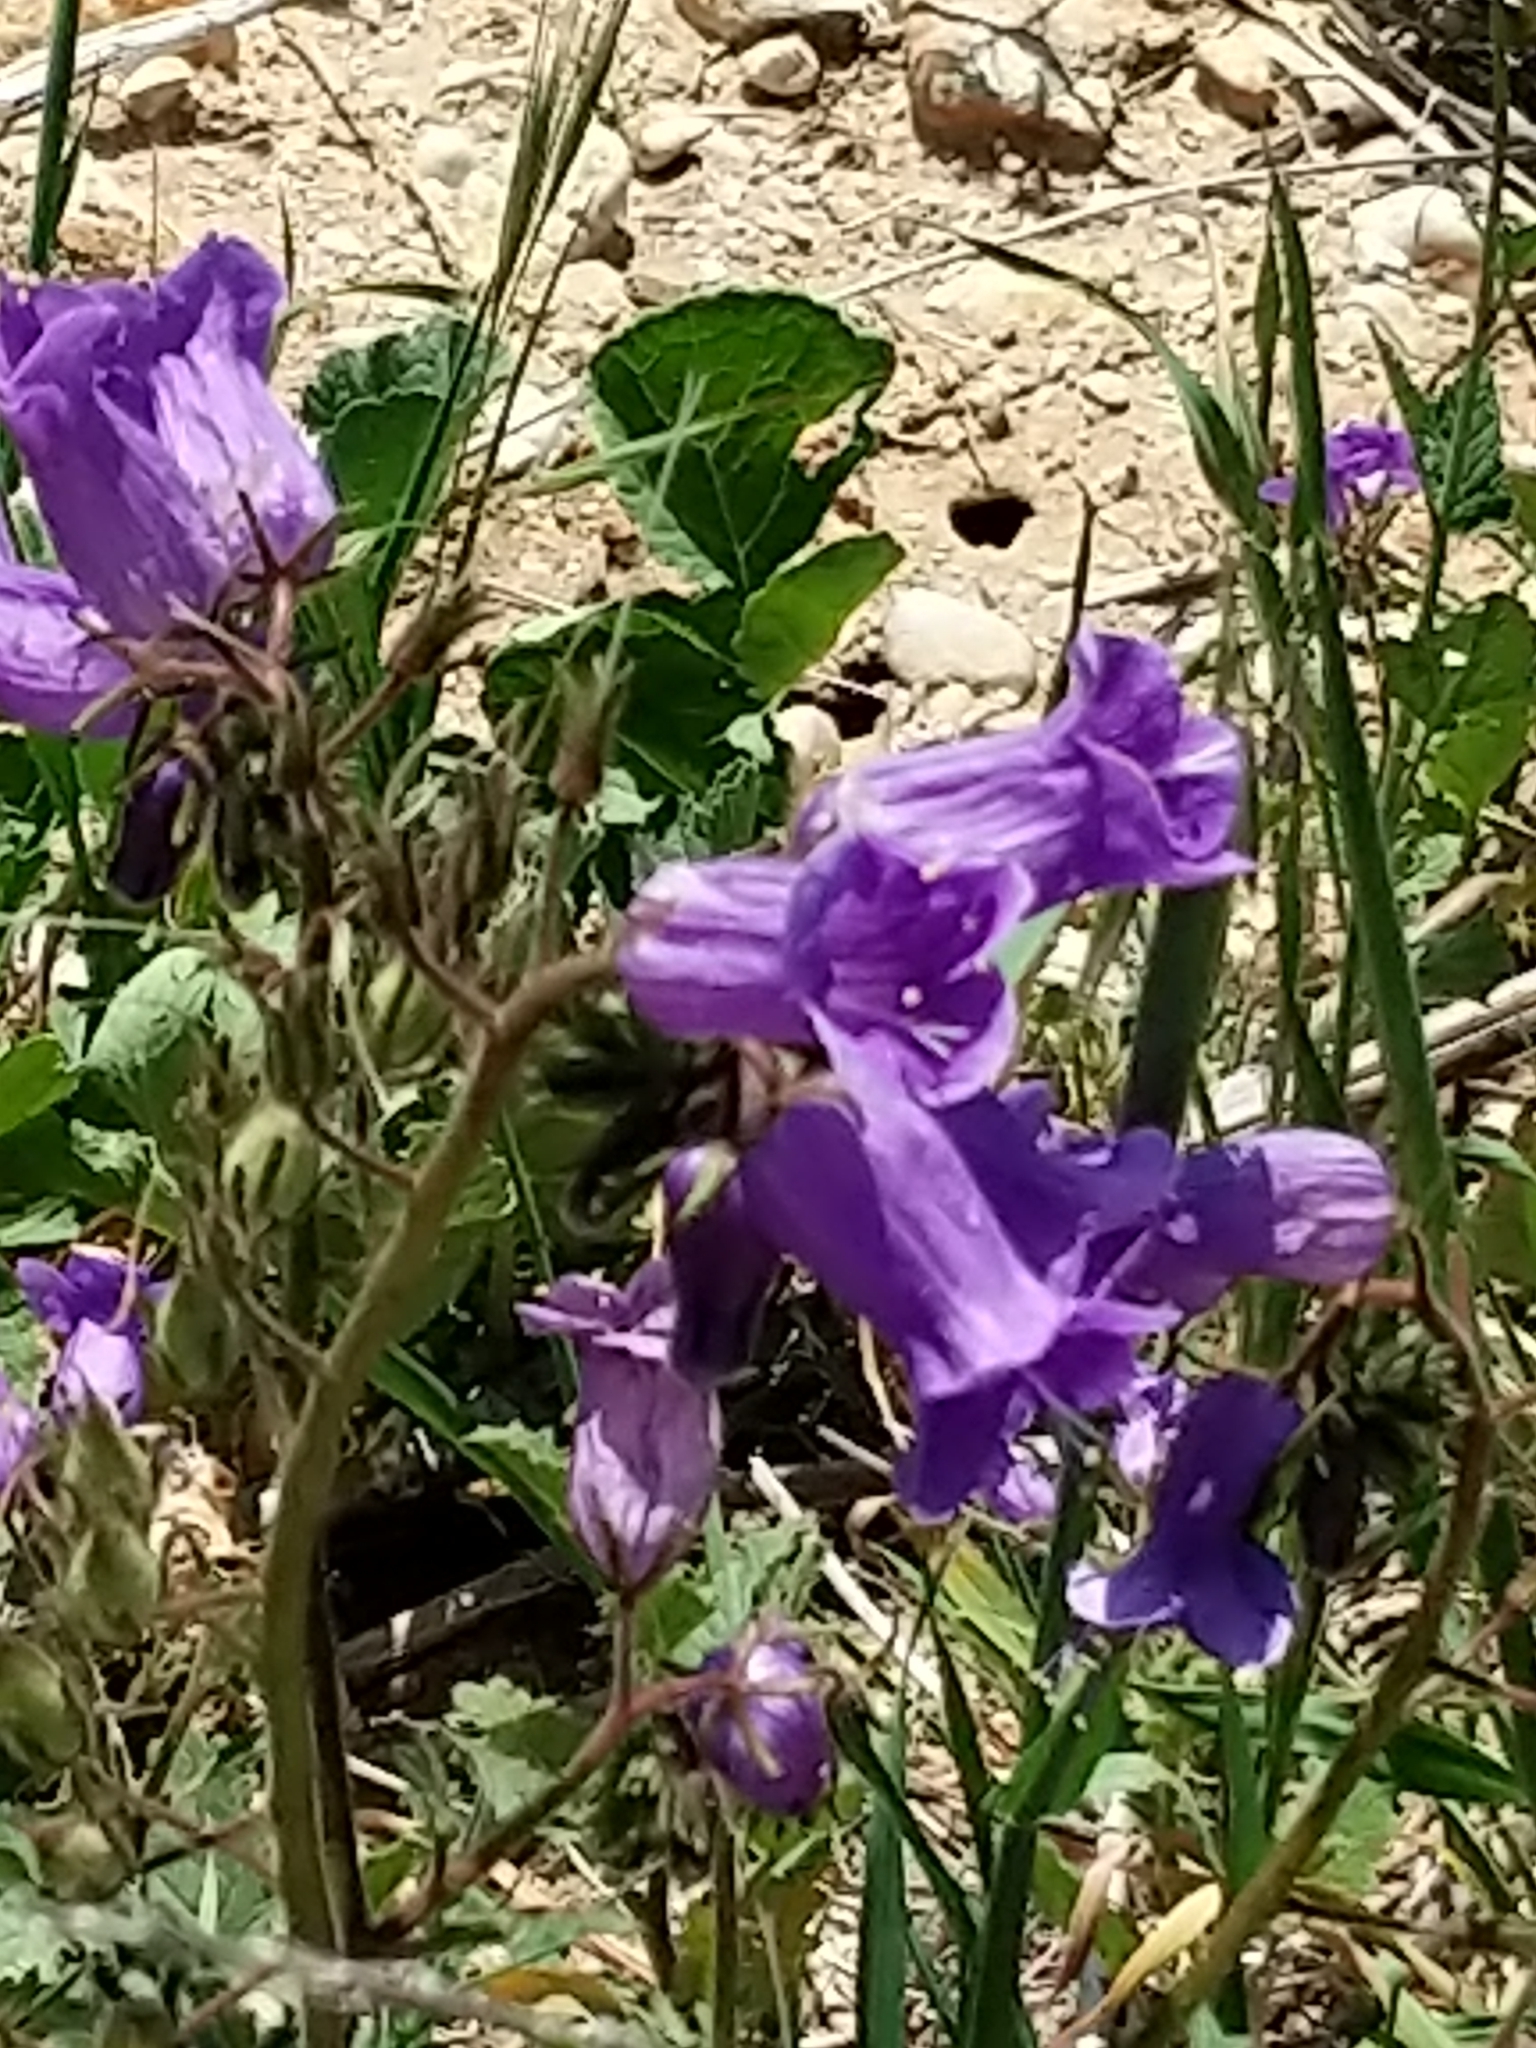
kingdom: Plantae
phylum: Tracheophyta
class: Magnoliopsida
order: Boraginales
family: Hydrophyllaceae
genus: Phacelia
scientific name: Phacelia minor
